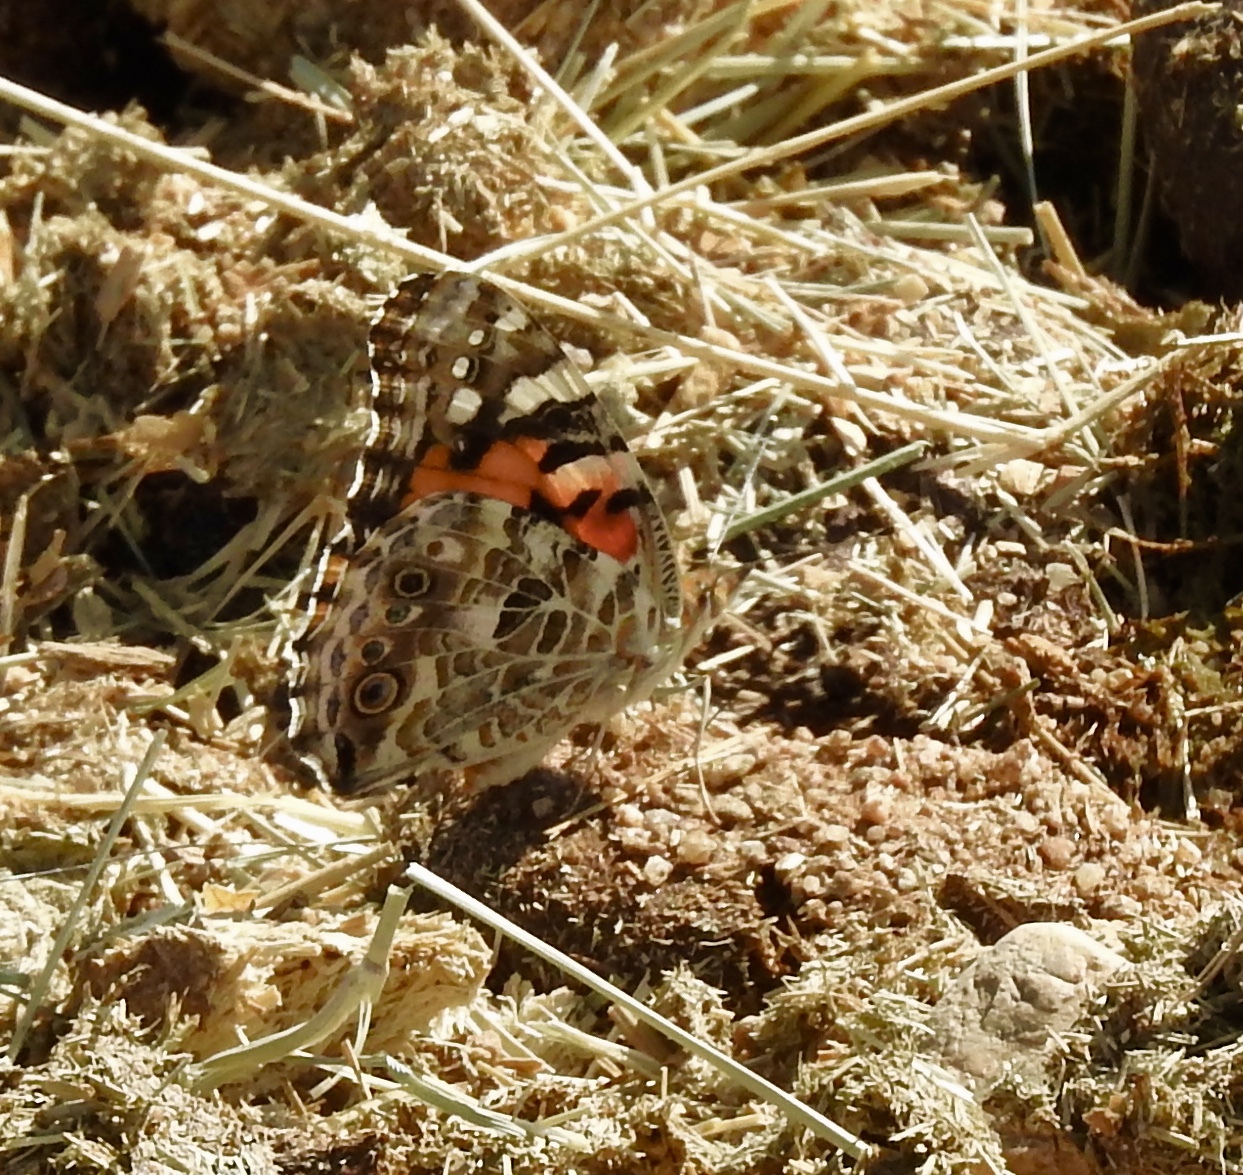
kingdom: Animalia
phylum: Arthropoda
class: Insecta
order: Lepidoptera
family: Nymphalidae
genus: Vanessa
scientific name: Vanessa cardui
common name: Painted lady
